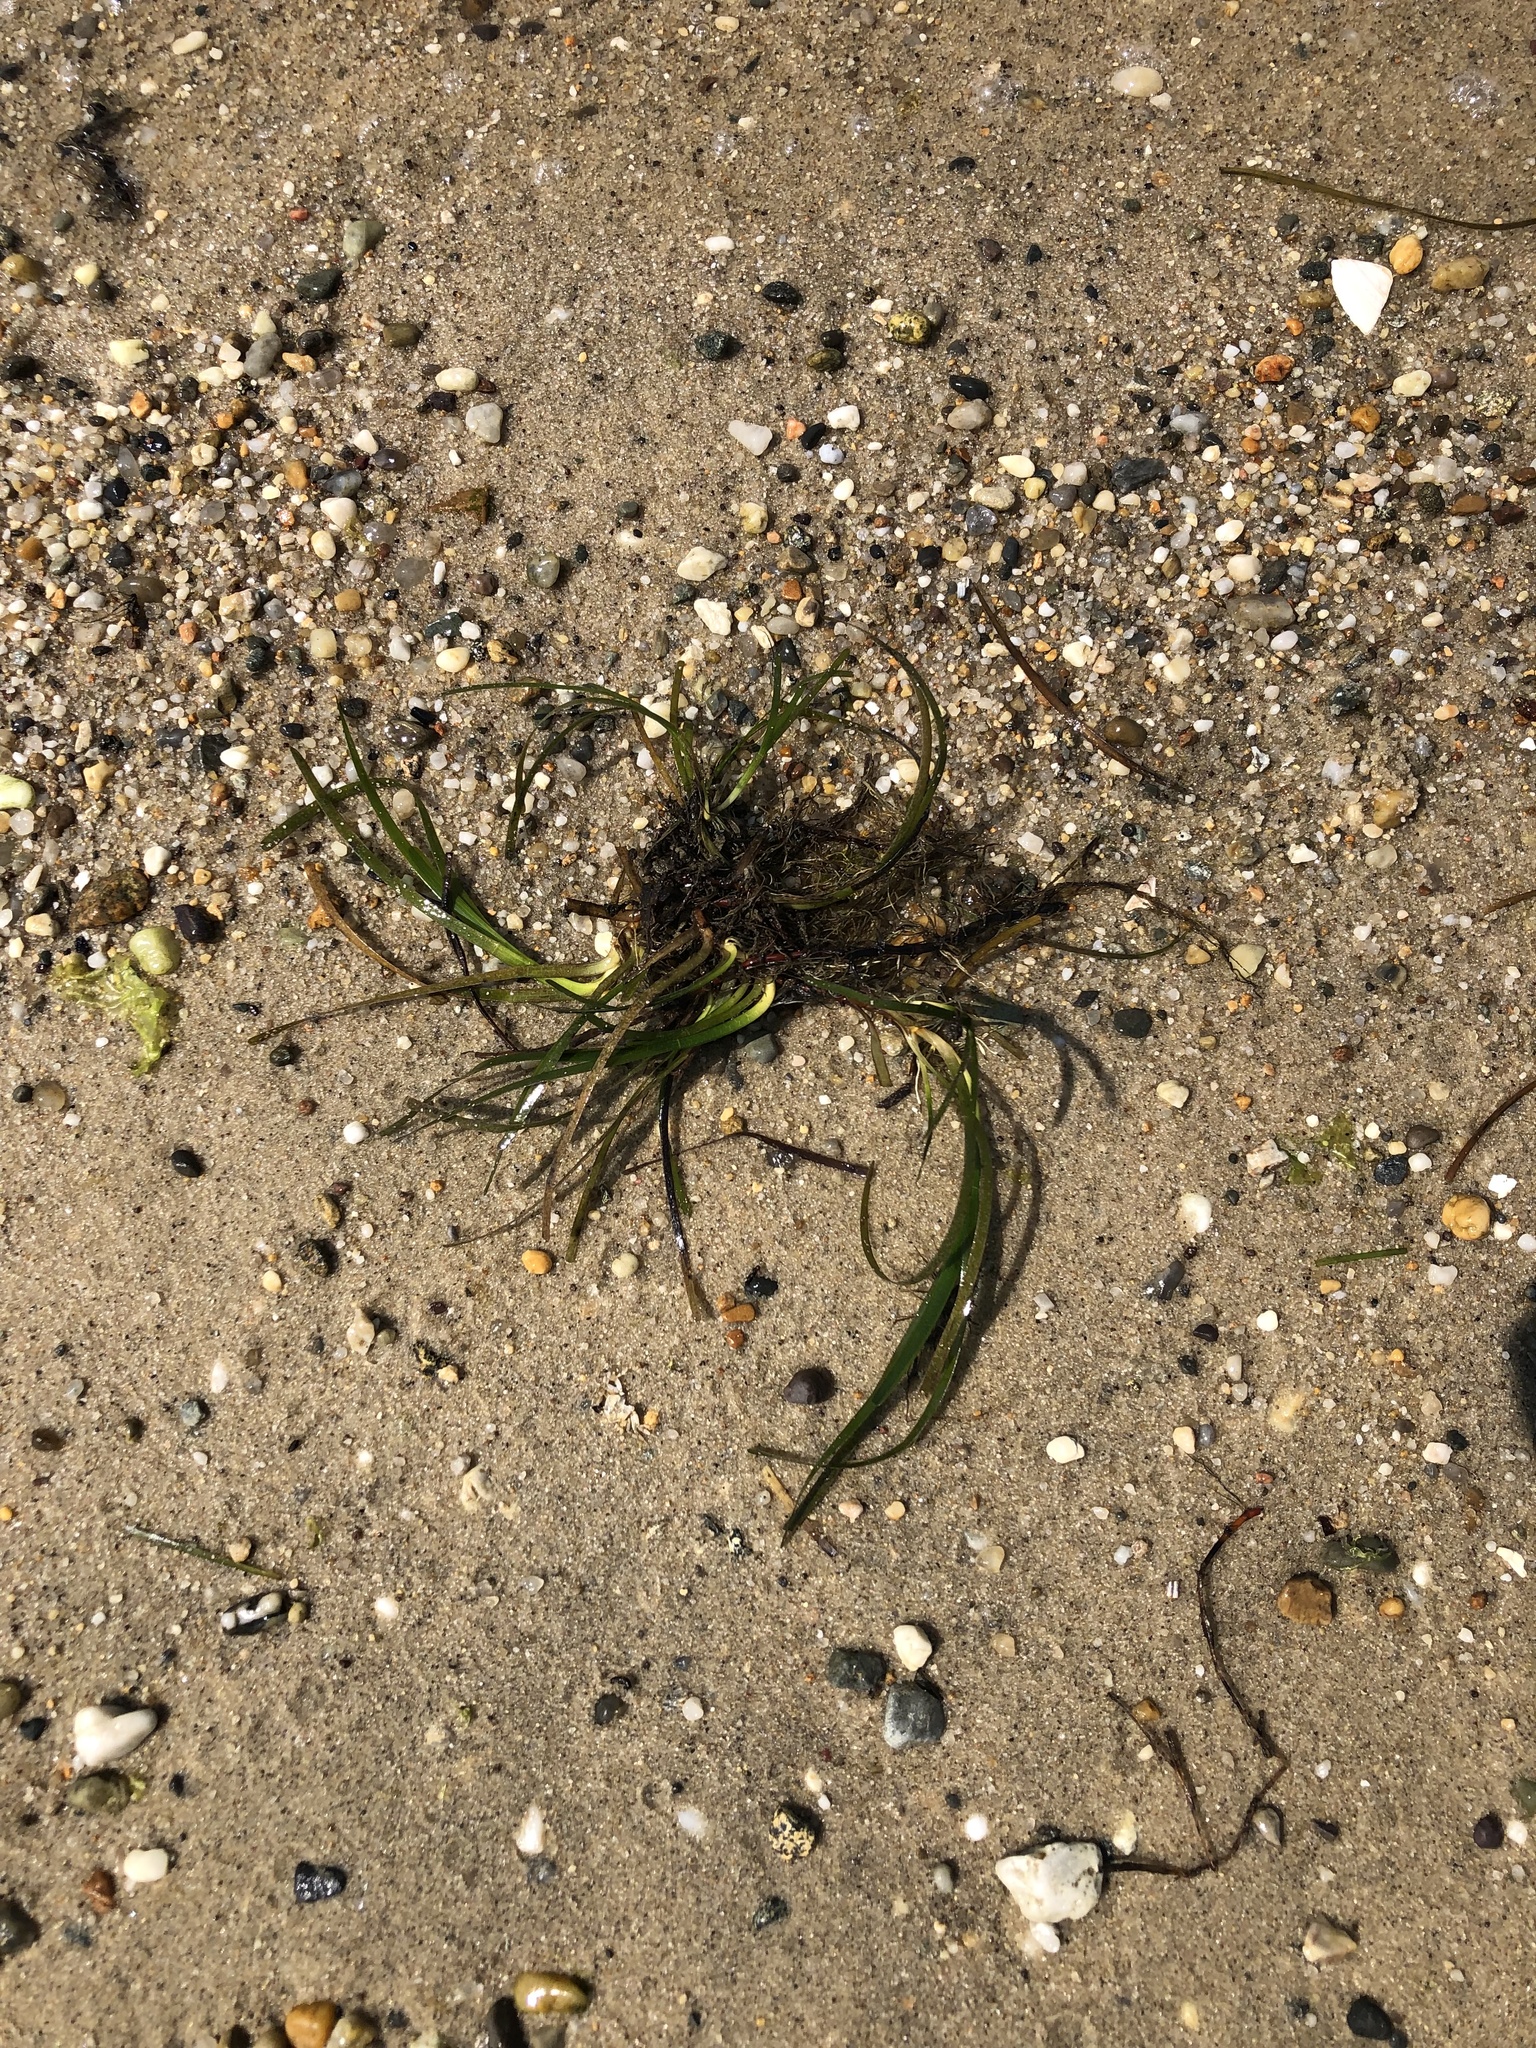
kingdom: Plantae
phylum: Tracheophyta
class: Liliopsida
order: Alismatales
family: Zosteraceae
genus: Zostera
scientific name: Zostera marina
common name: Eelgrass
